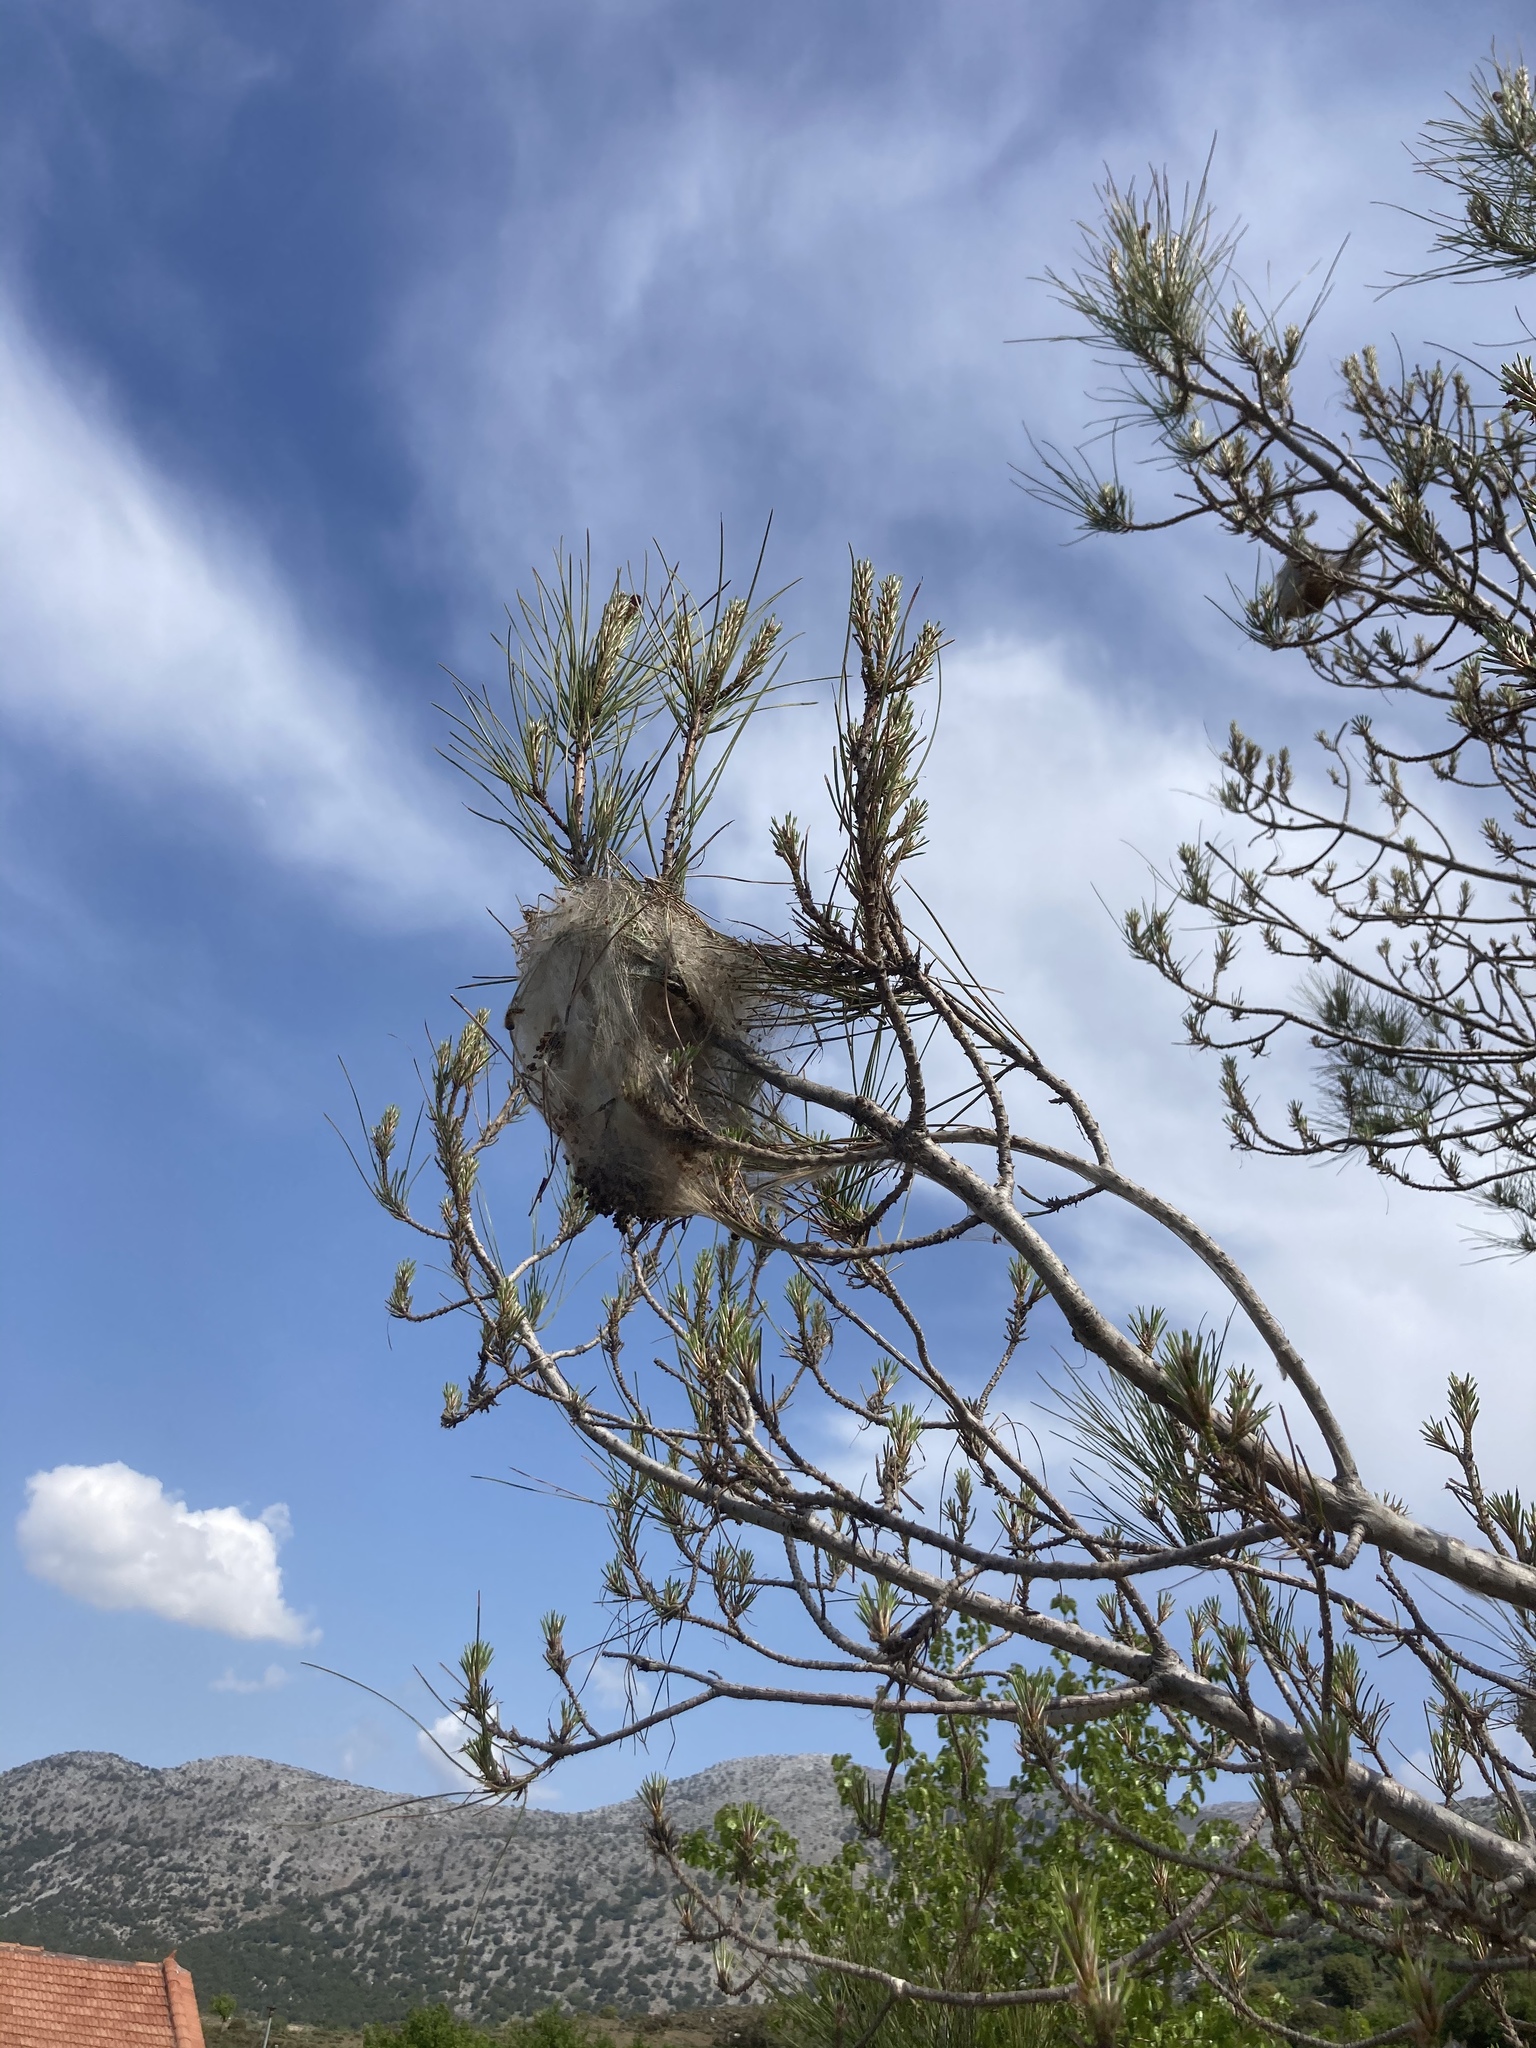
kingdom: Animalia
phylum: Arthropoda
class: Insecta
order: Lepidoptera
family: Notodontidae
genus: Thaumetopoea
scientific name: Thaumetopoea
